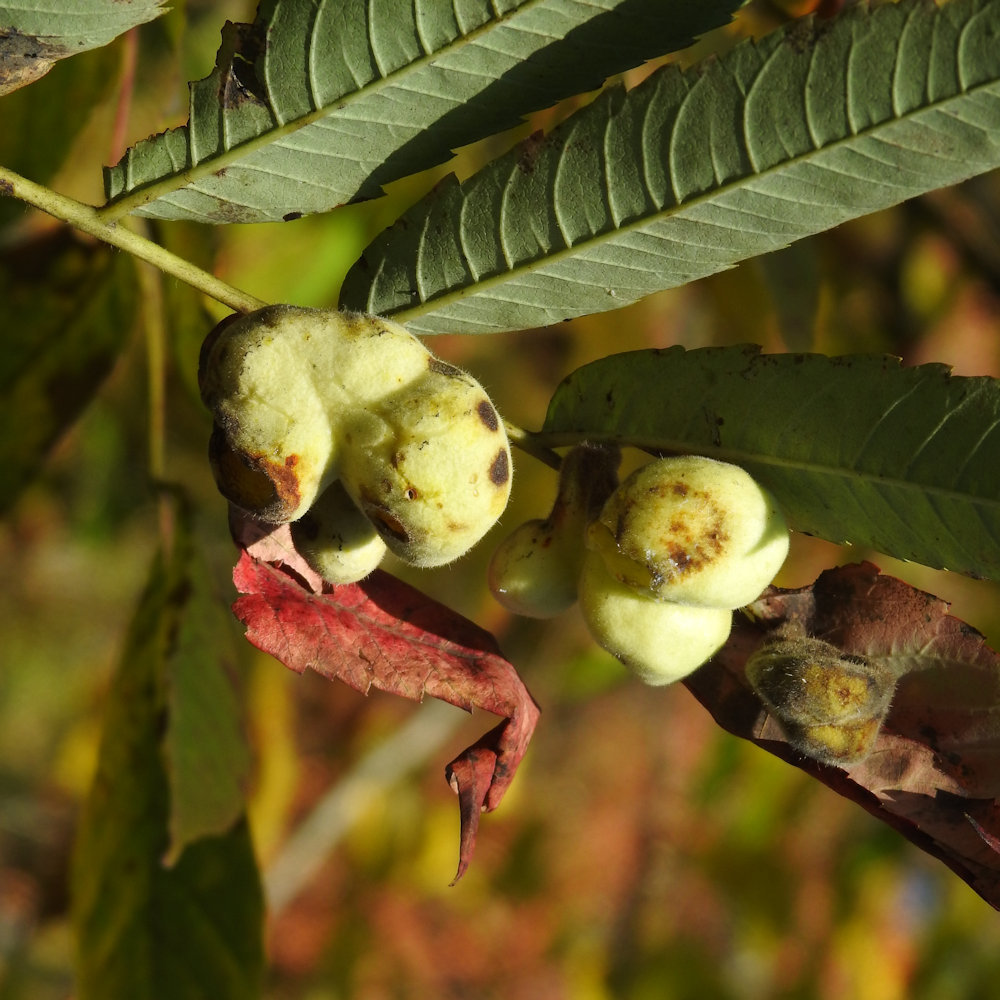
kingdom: Animalia
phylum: Arthropoda
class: Insecta
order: Hemiptera
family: Aphididae
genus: Melaphis
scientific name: Melaphis rhois
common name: Sumac gall aphid
